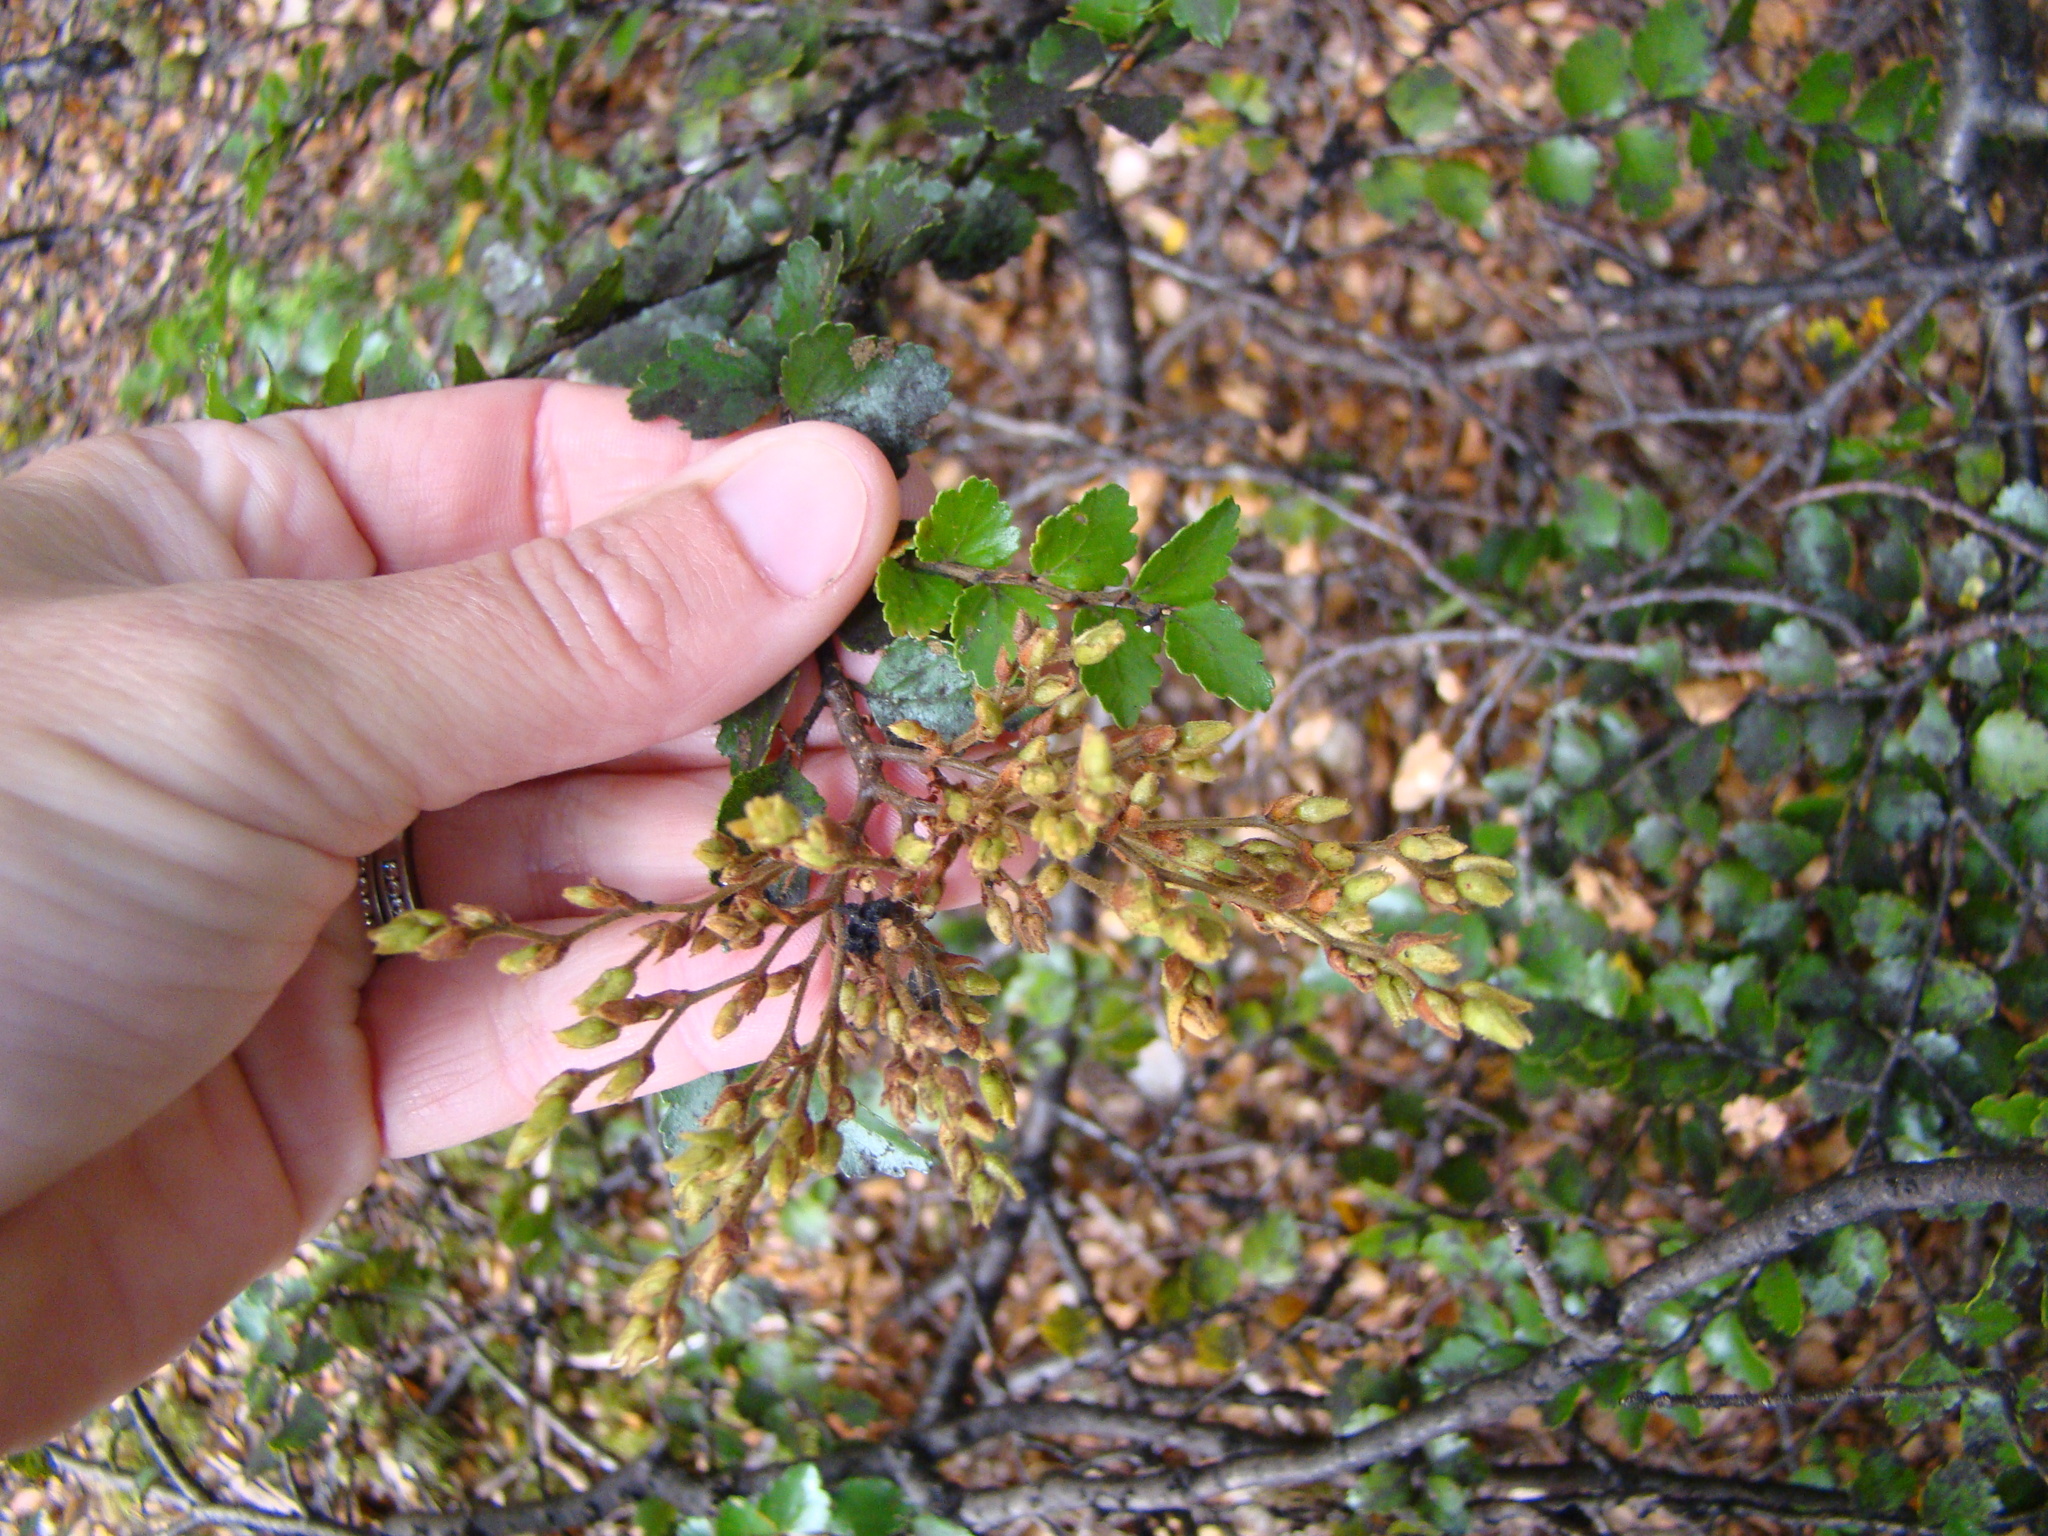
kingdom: Plantae
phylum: Tracheophyta
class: Magnoliopsida
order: Fagales
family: Nothofagaceae
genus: Nothofagus
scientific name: Nothofagus menziesii
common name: Silver beech
